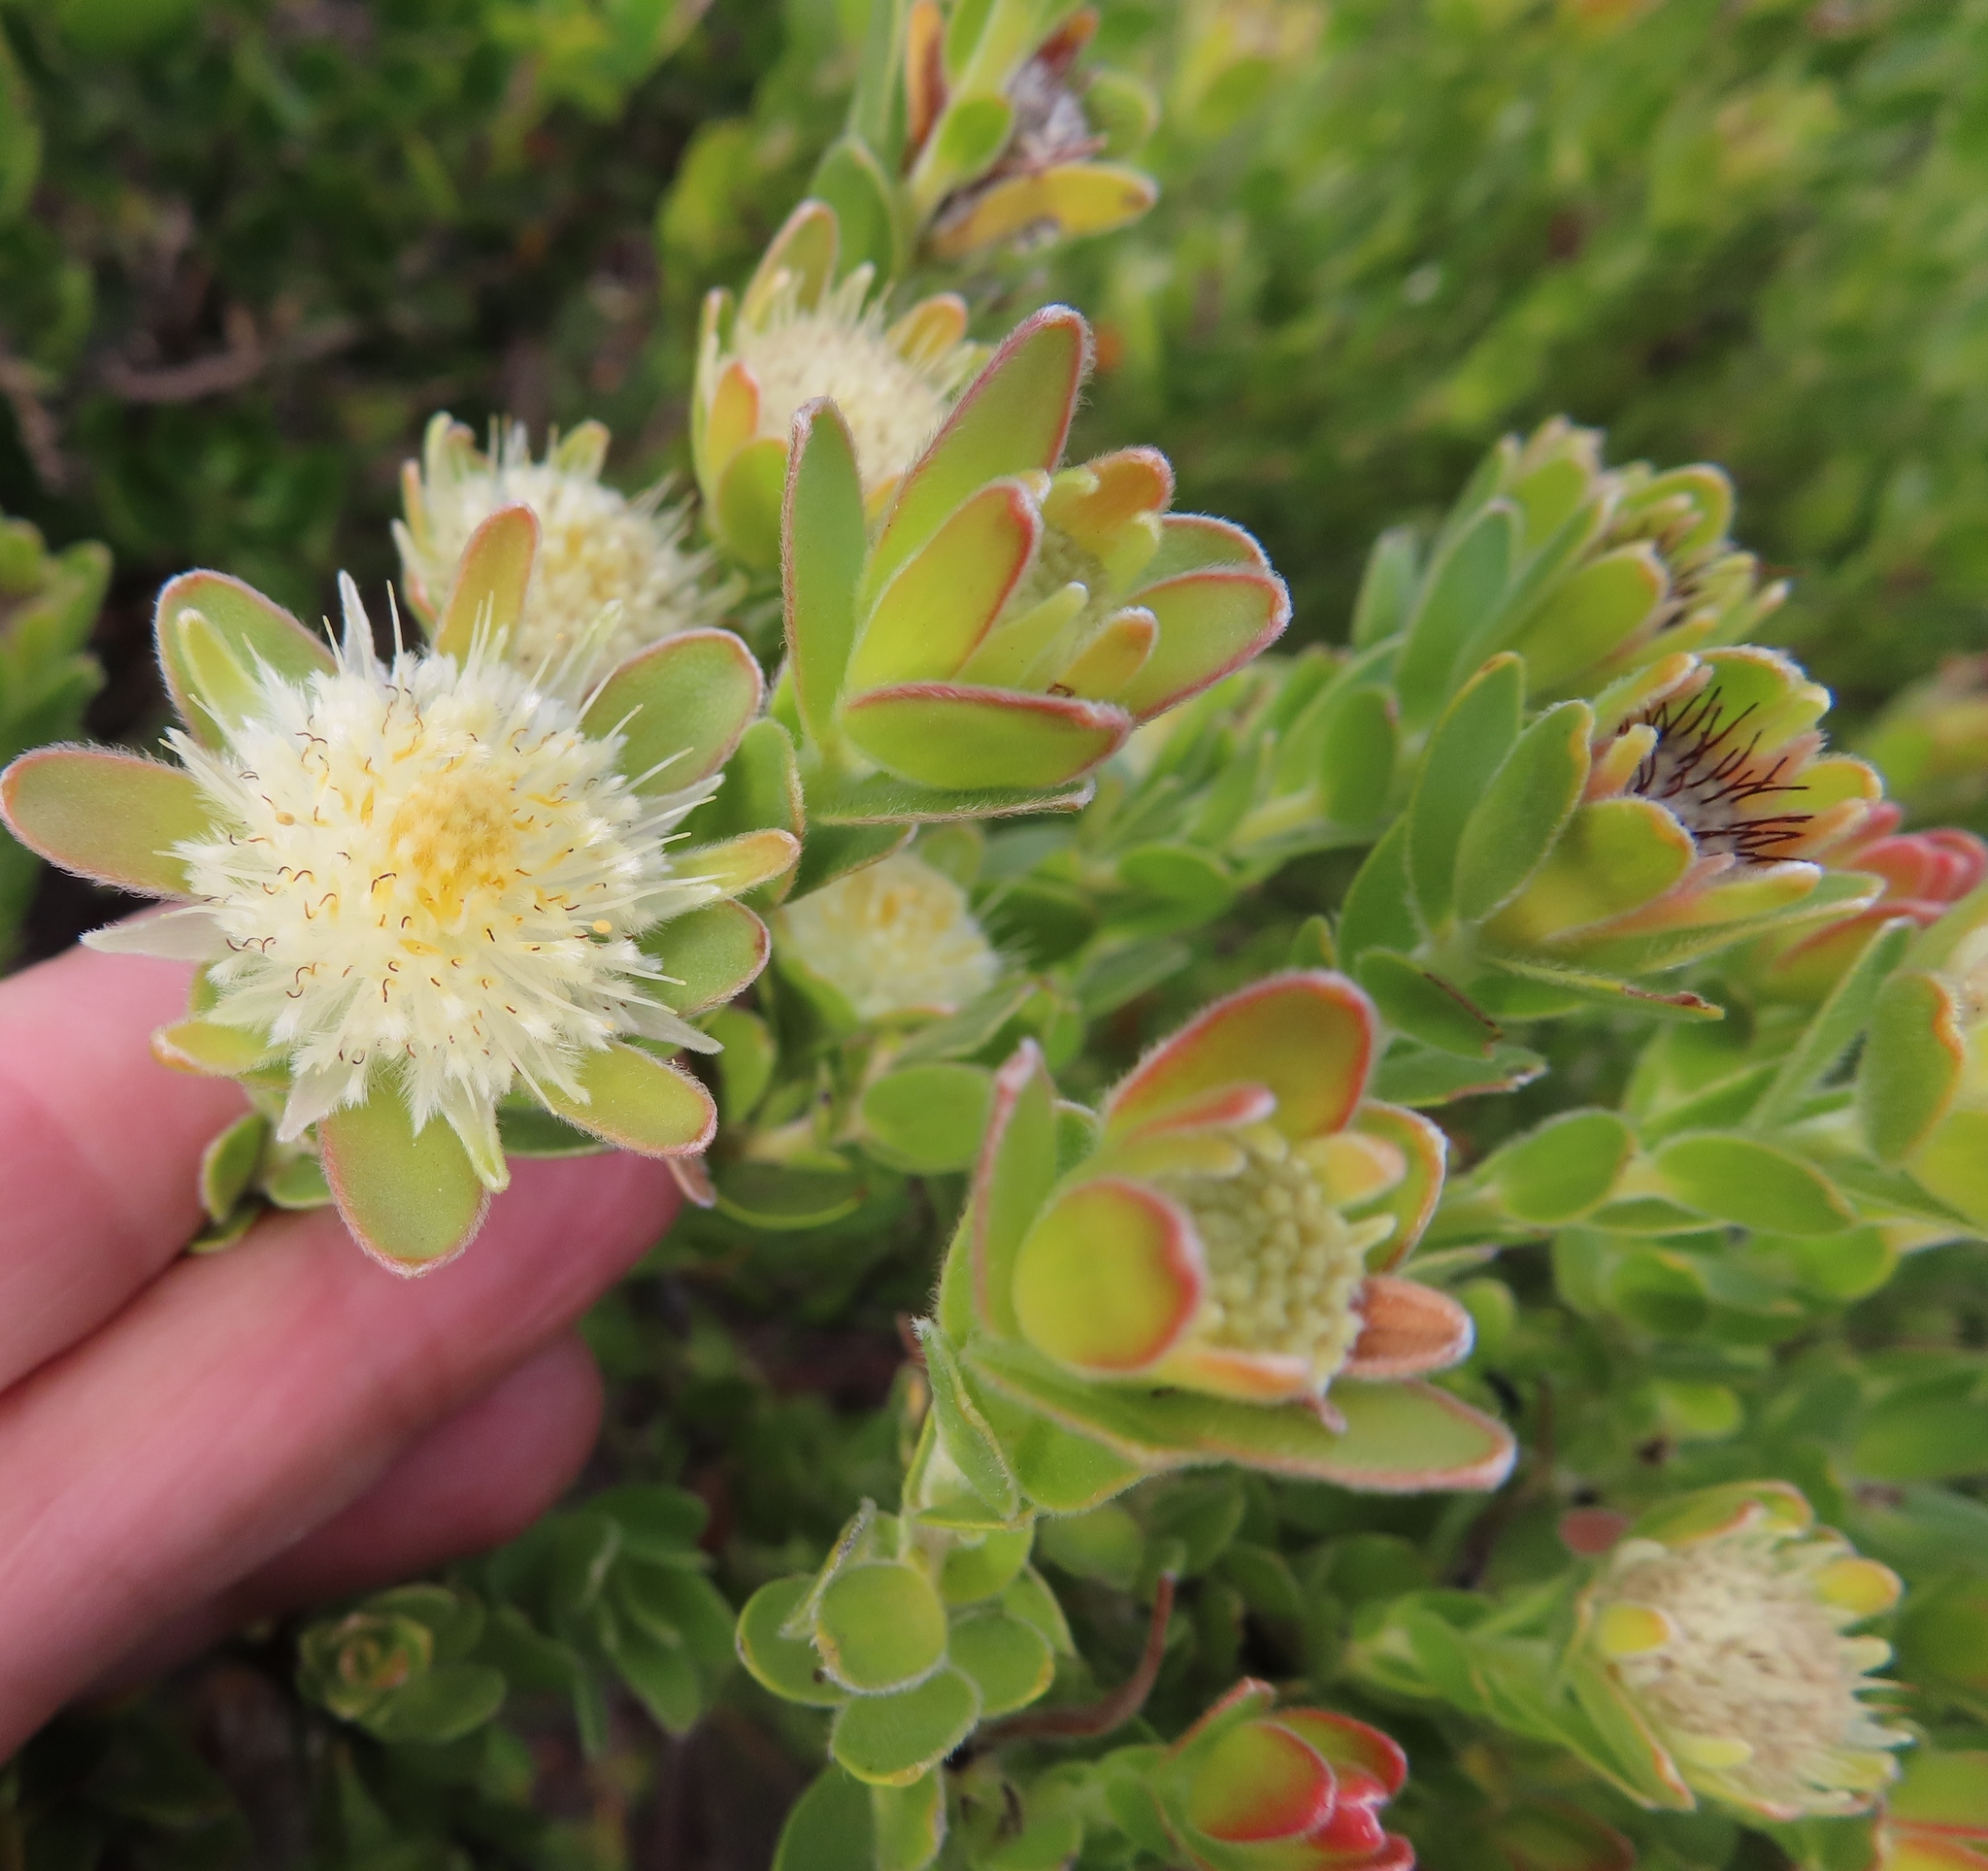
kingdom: Plantae
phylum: Tracheophyta
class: Magnoliopsida
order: Proteales
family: Proteaceae
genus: Diastella
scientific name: Diastella thymelaeoides
